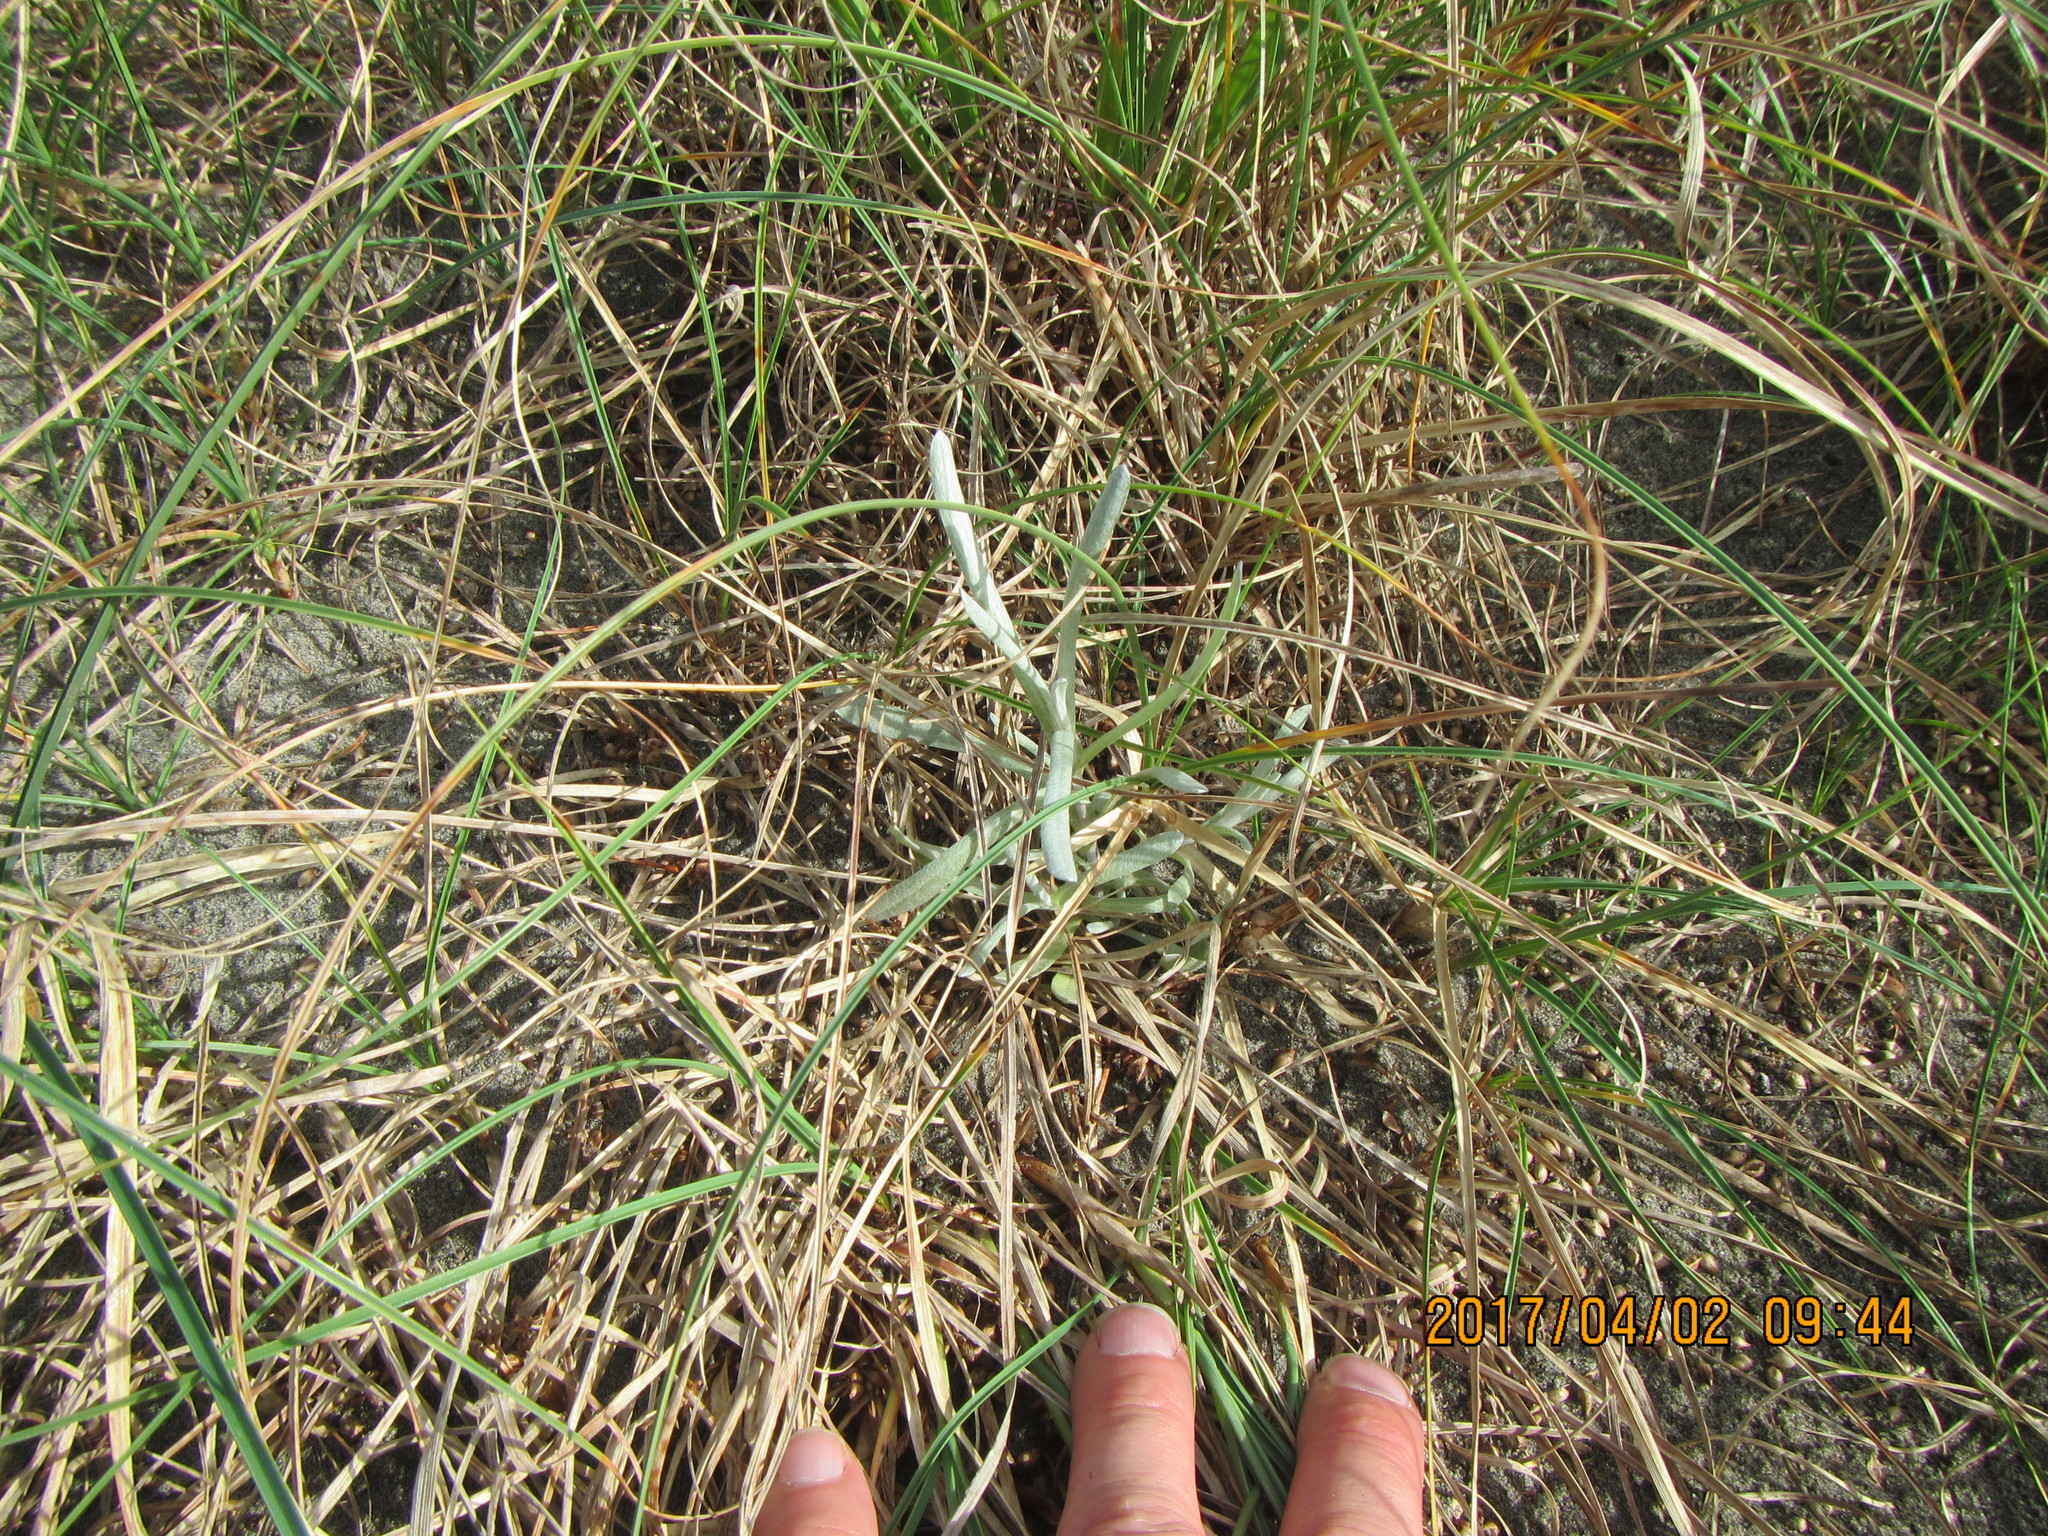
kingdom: Plantae
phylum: Tracheophyta
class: Magnoliopsida
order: Asterales
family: Asteraceae
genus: Senecio
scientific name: Senecio quadridentatus
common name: Cotton fireweed
